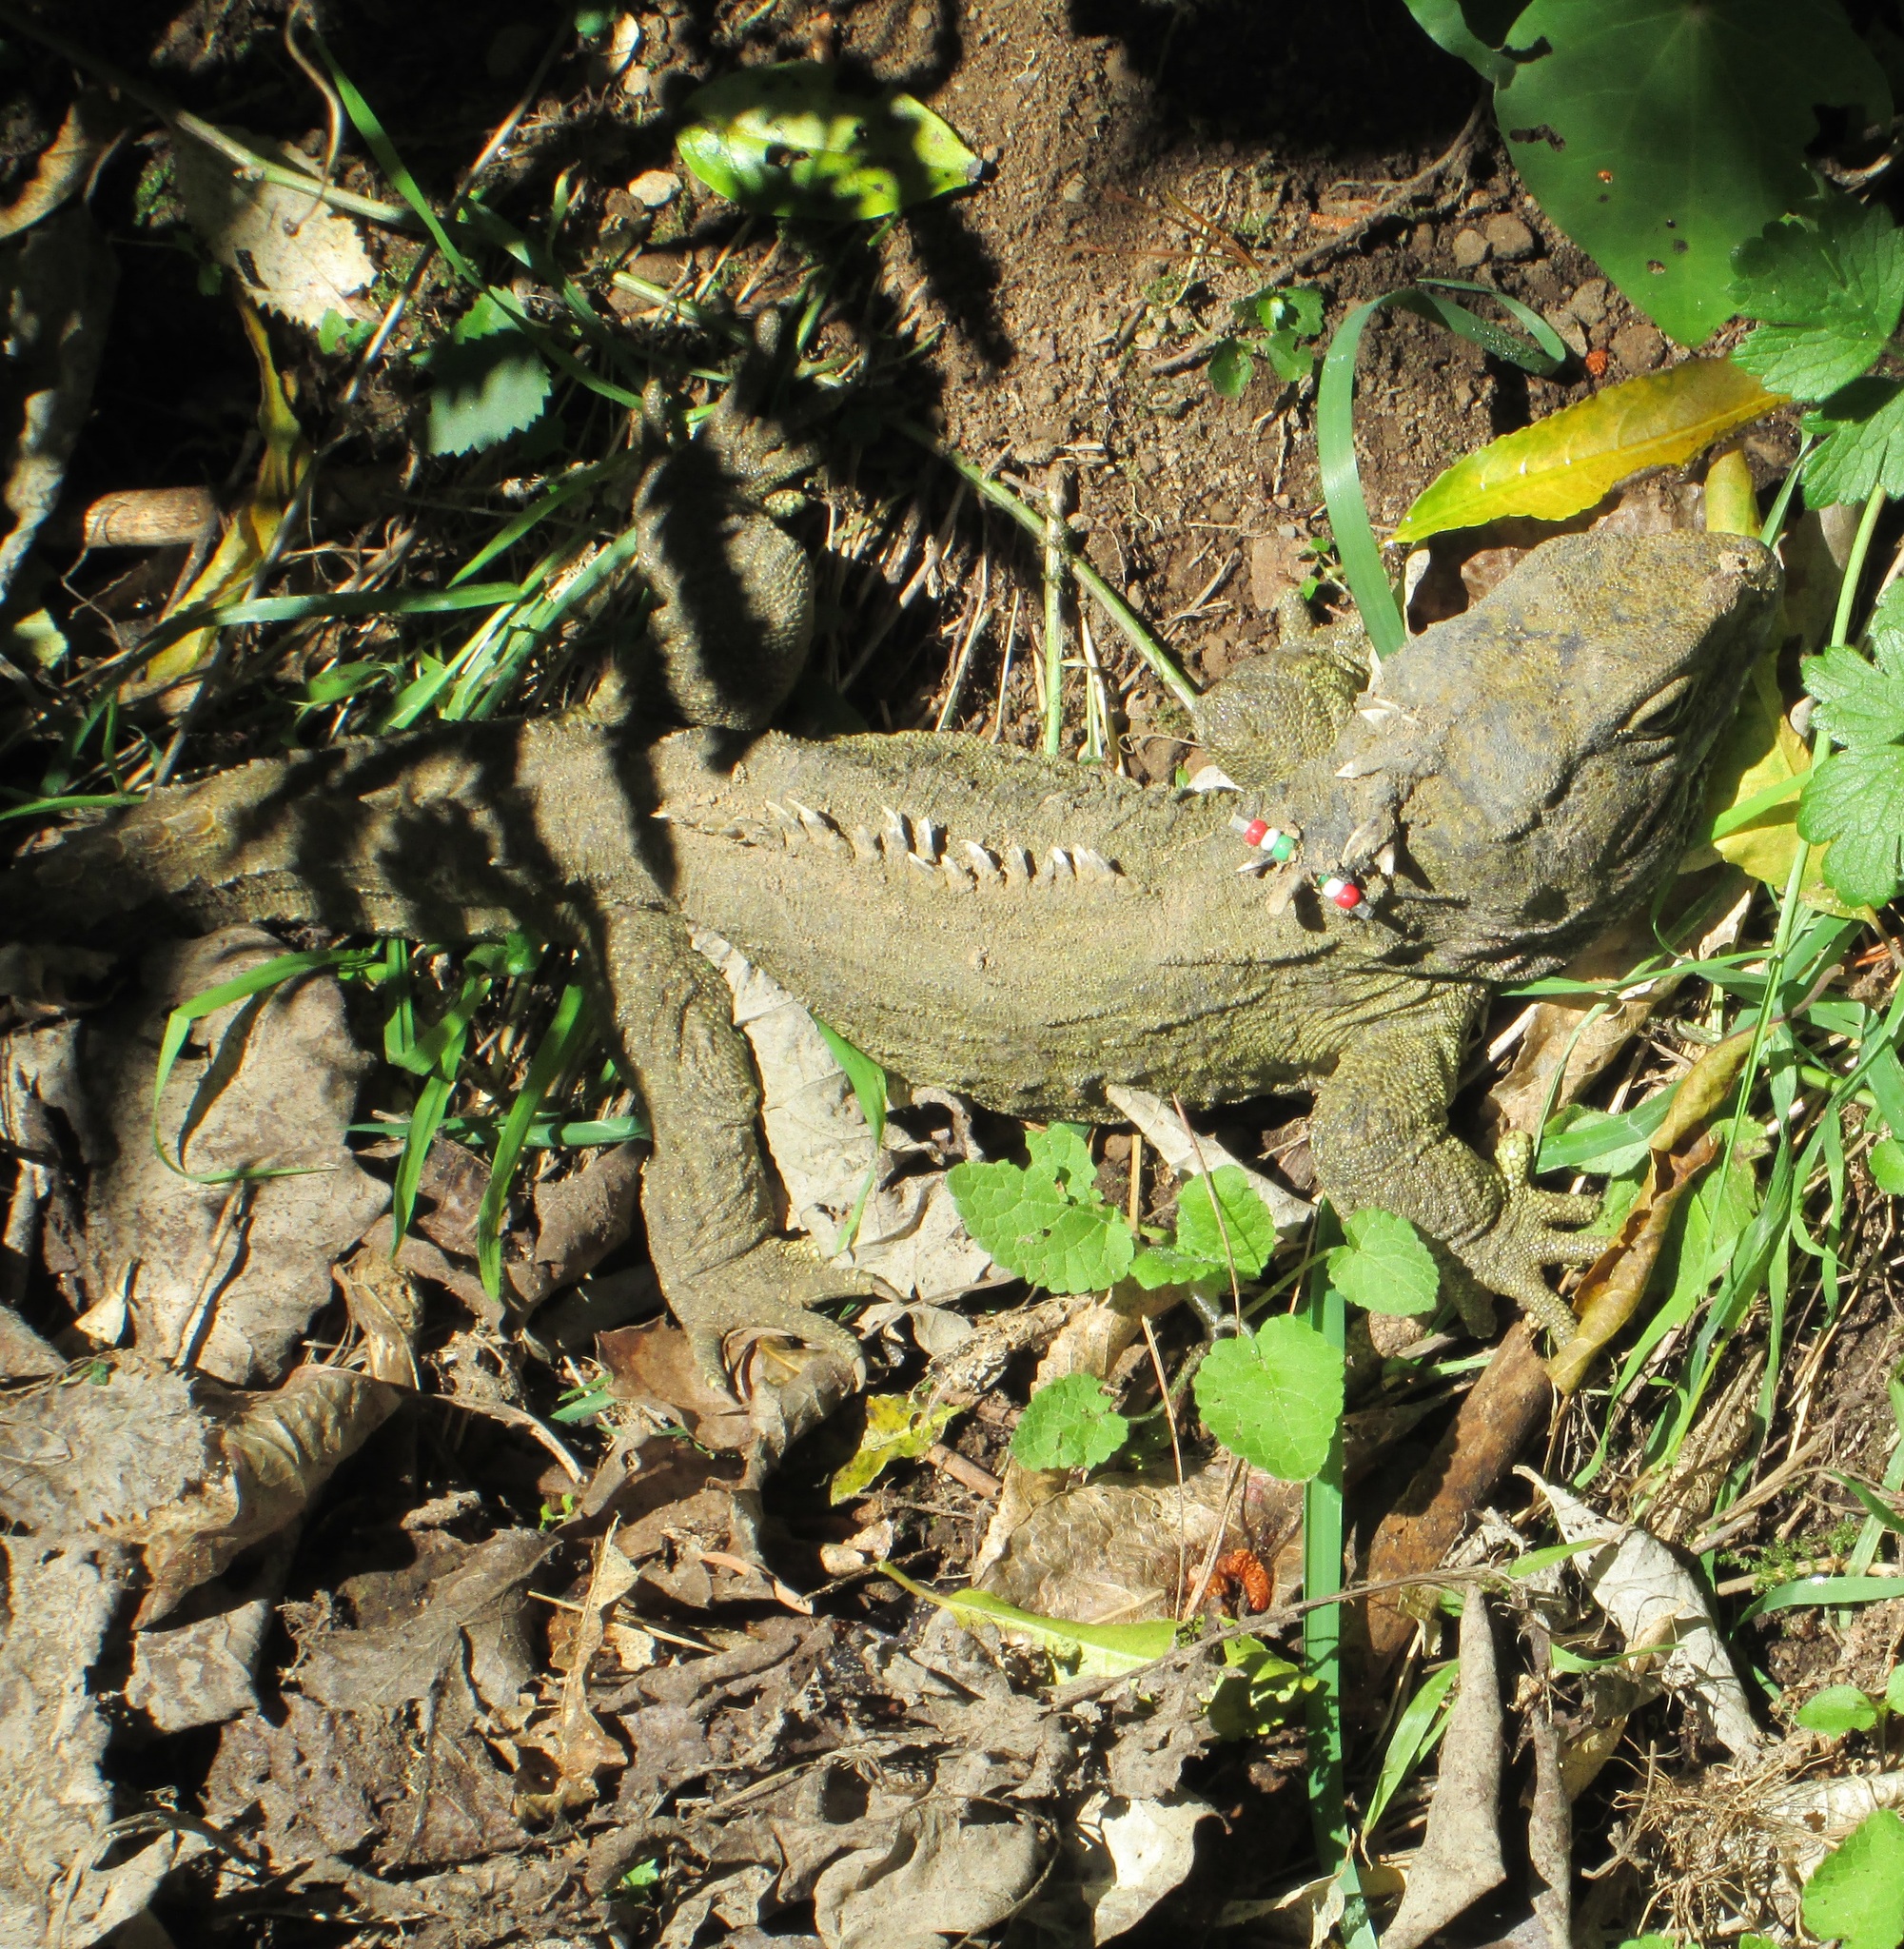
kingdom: Animalia
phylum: Chordata
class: Sphenodontia
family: Sphenodontidae
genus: Sphenodon
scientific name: Sphenodon punctatus
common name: Tuatara
